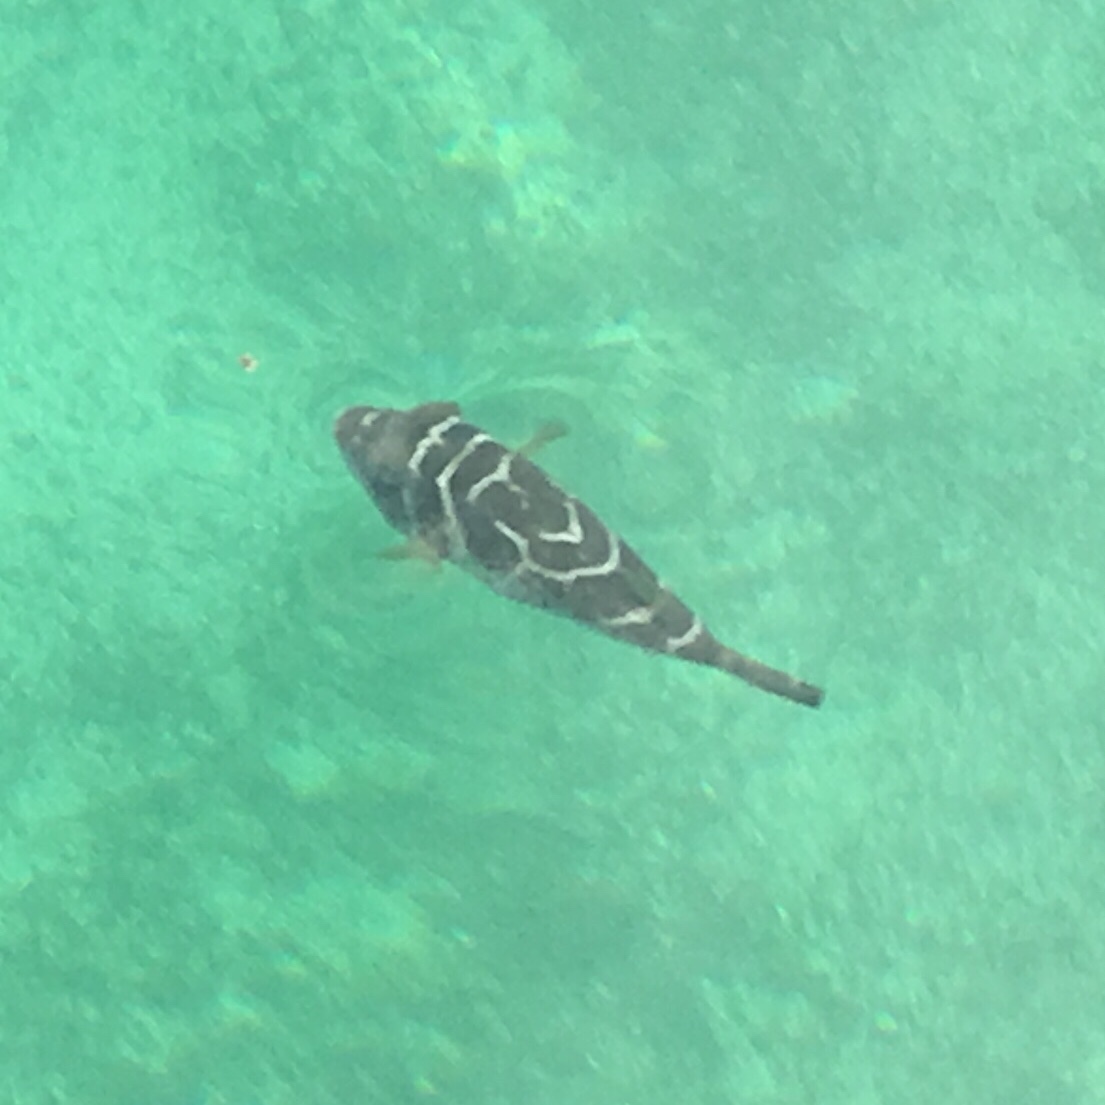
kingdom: Animalia
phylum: Chordata
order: Tetraodontiformes
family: Tetraodontidae
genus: Sphoeroides
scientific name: Sphoeroides annulatus
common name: Bullseye puffer
